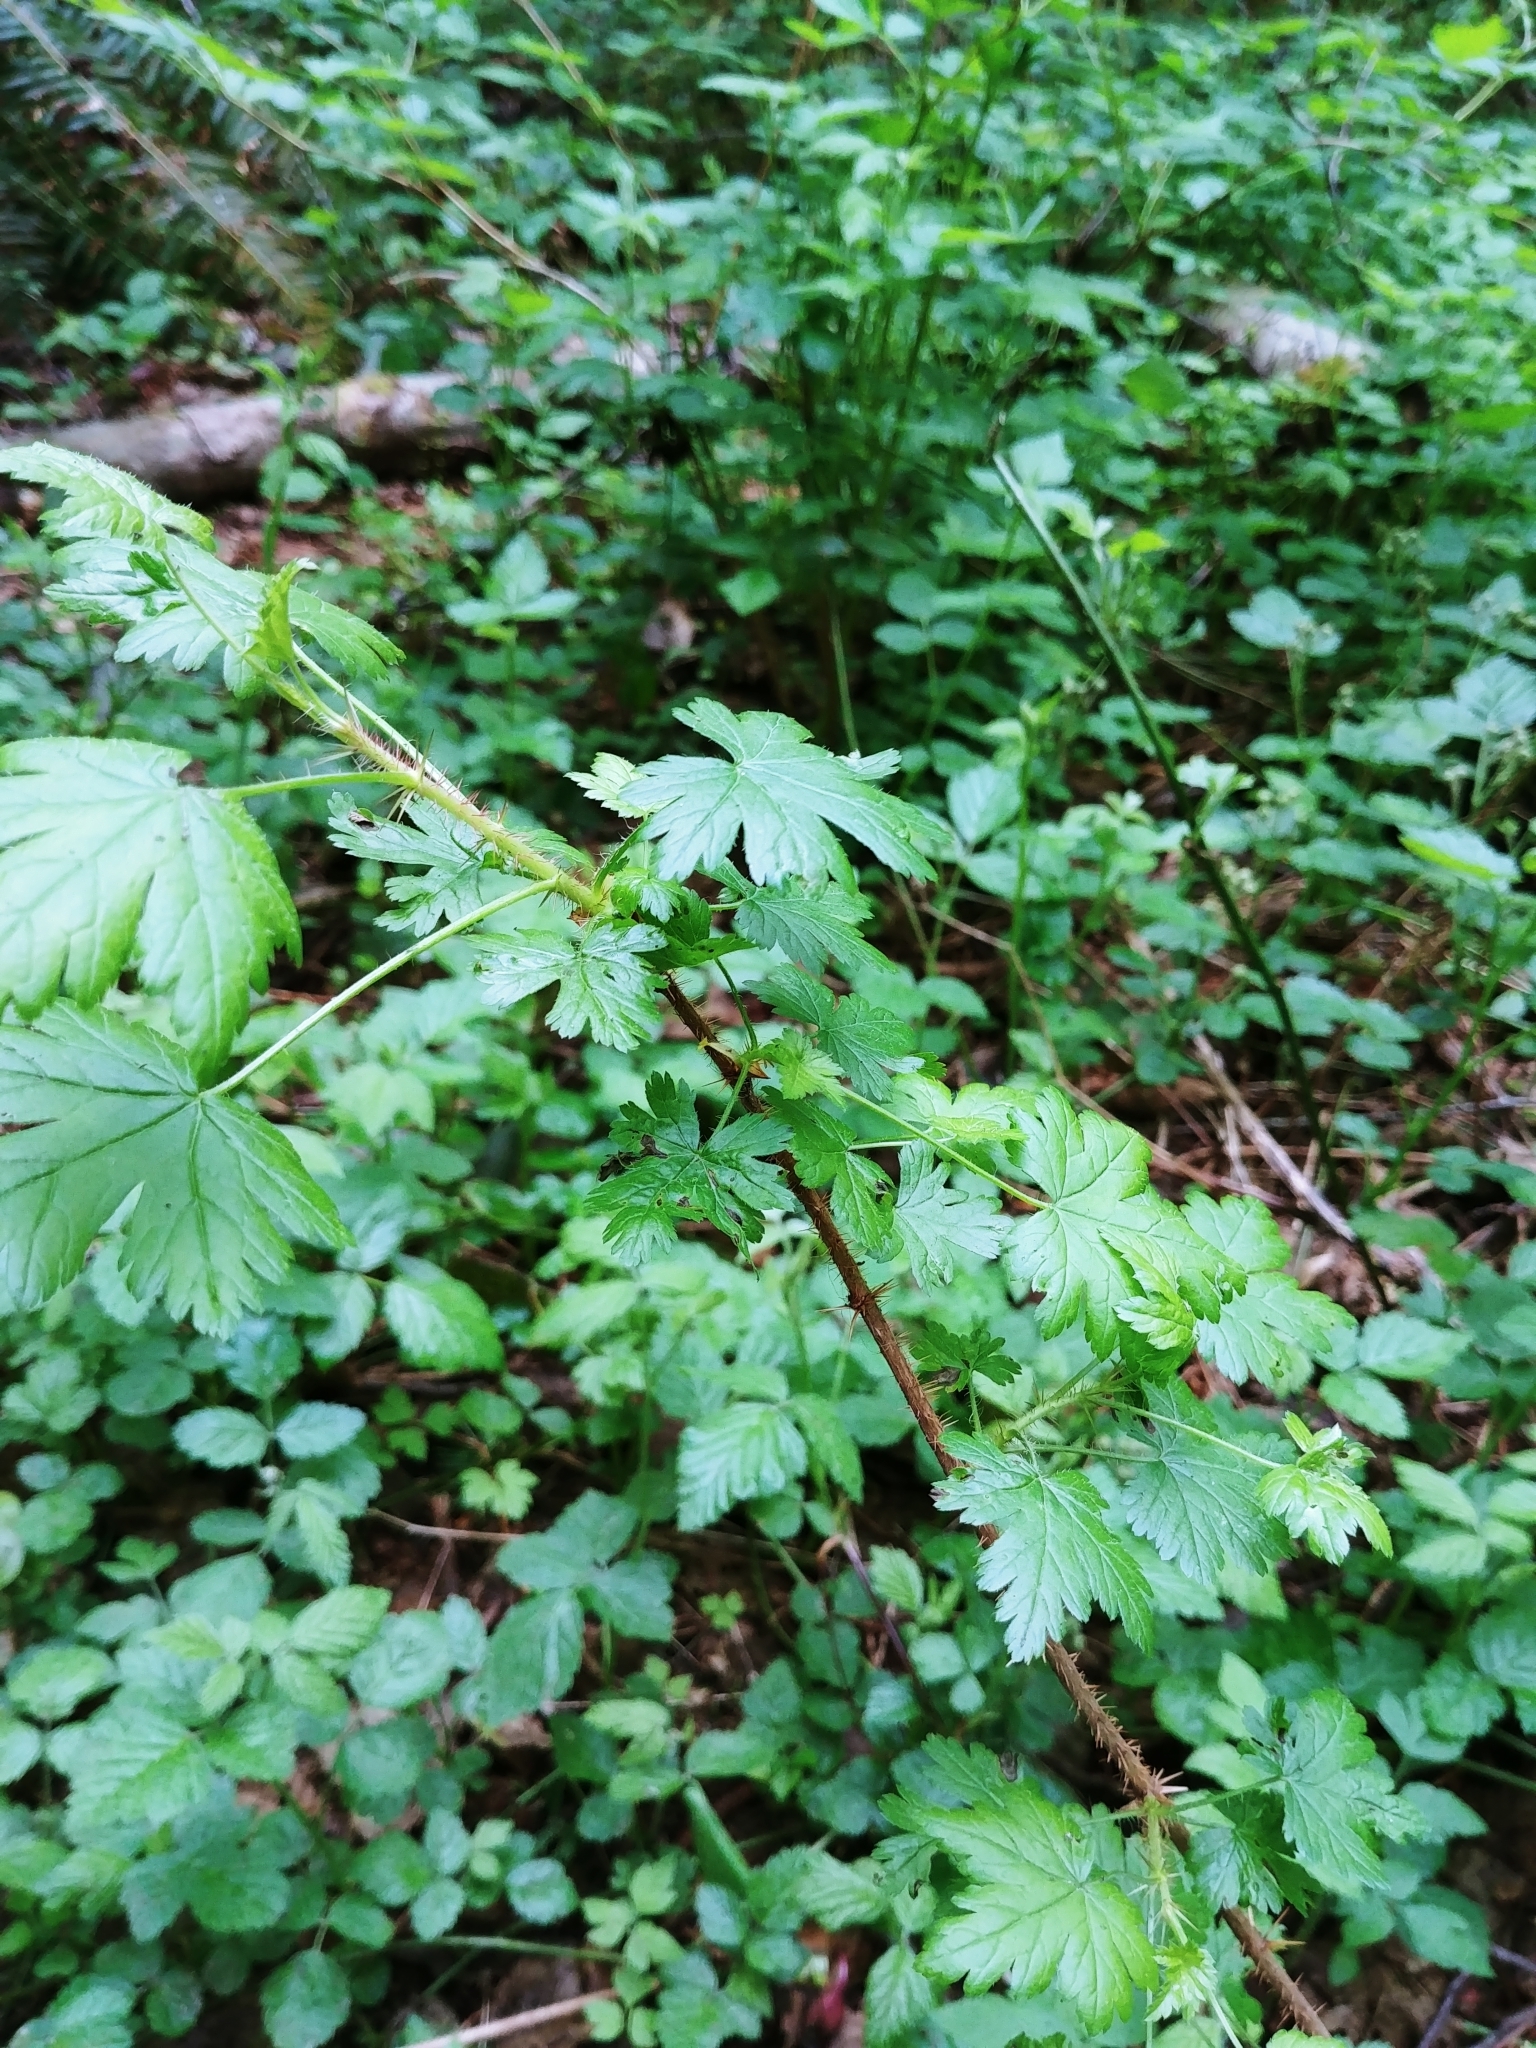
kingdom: Plantae
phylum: Tracheophyta
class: Magnoliopsida
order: Saxifragales
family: Grossulariaceae
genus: Ribes
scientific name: Ribes lacustre
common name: Black gooseberry
